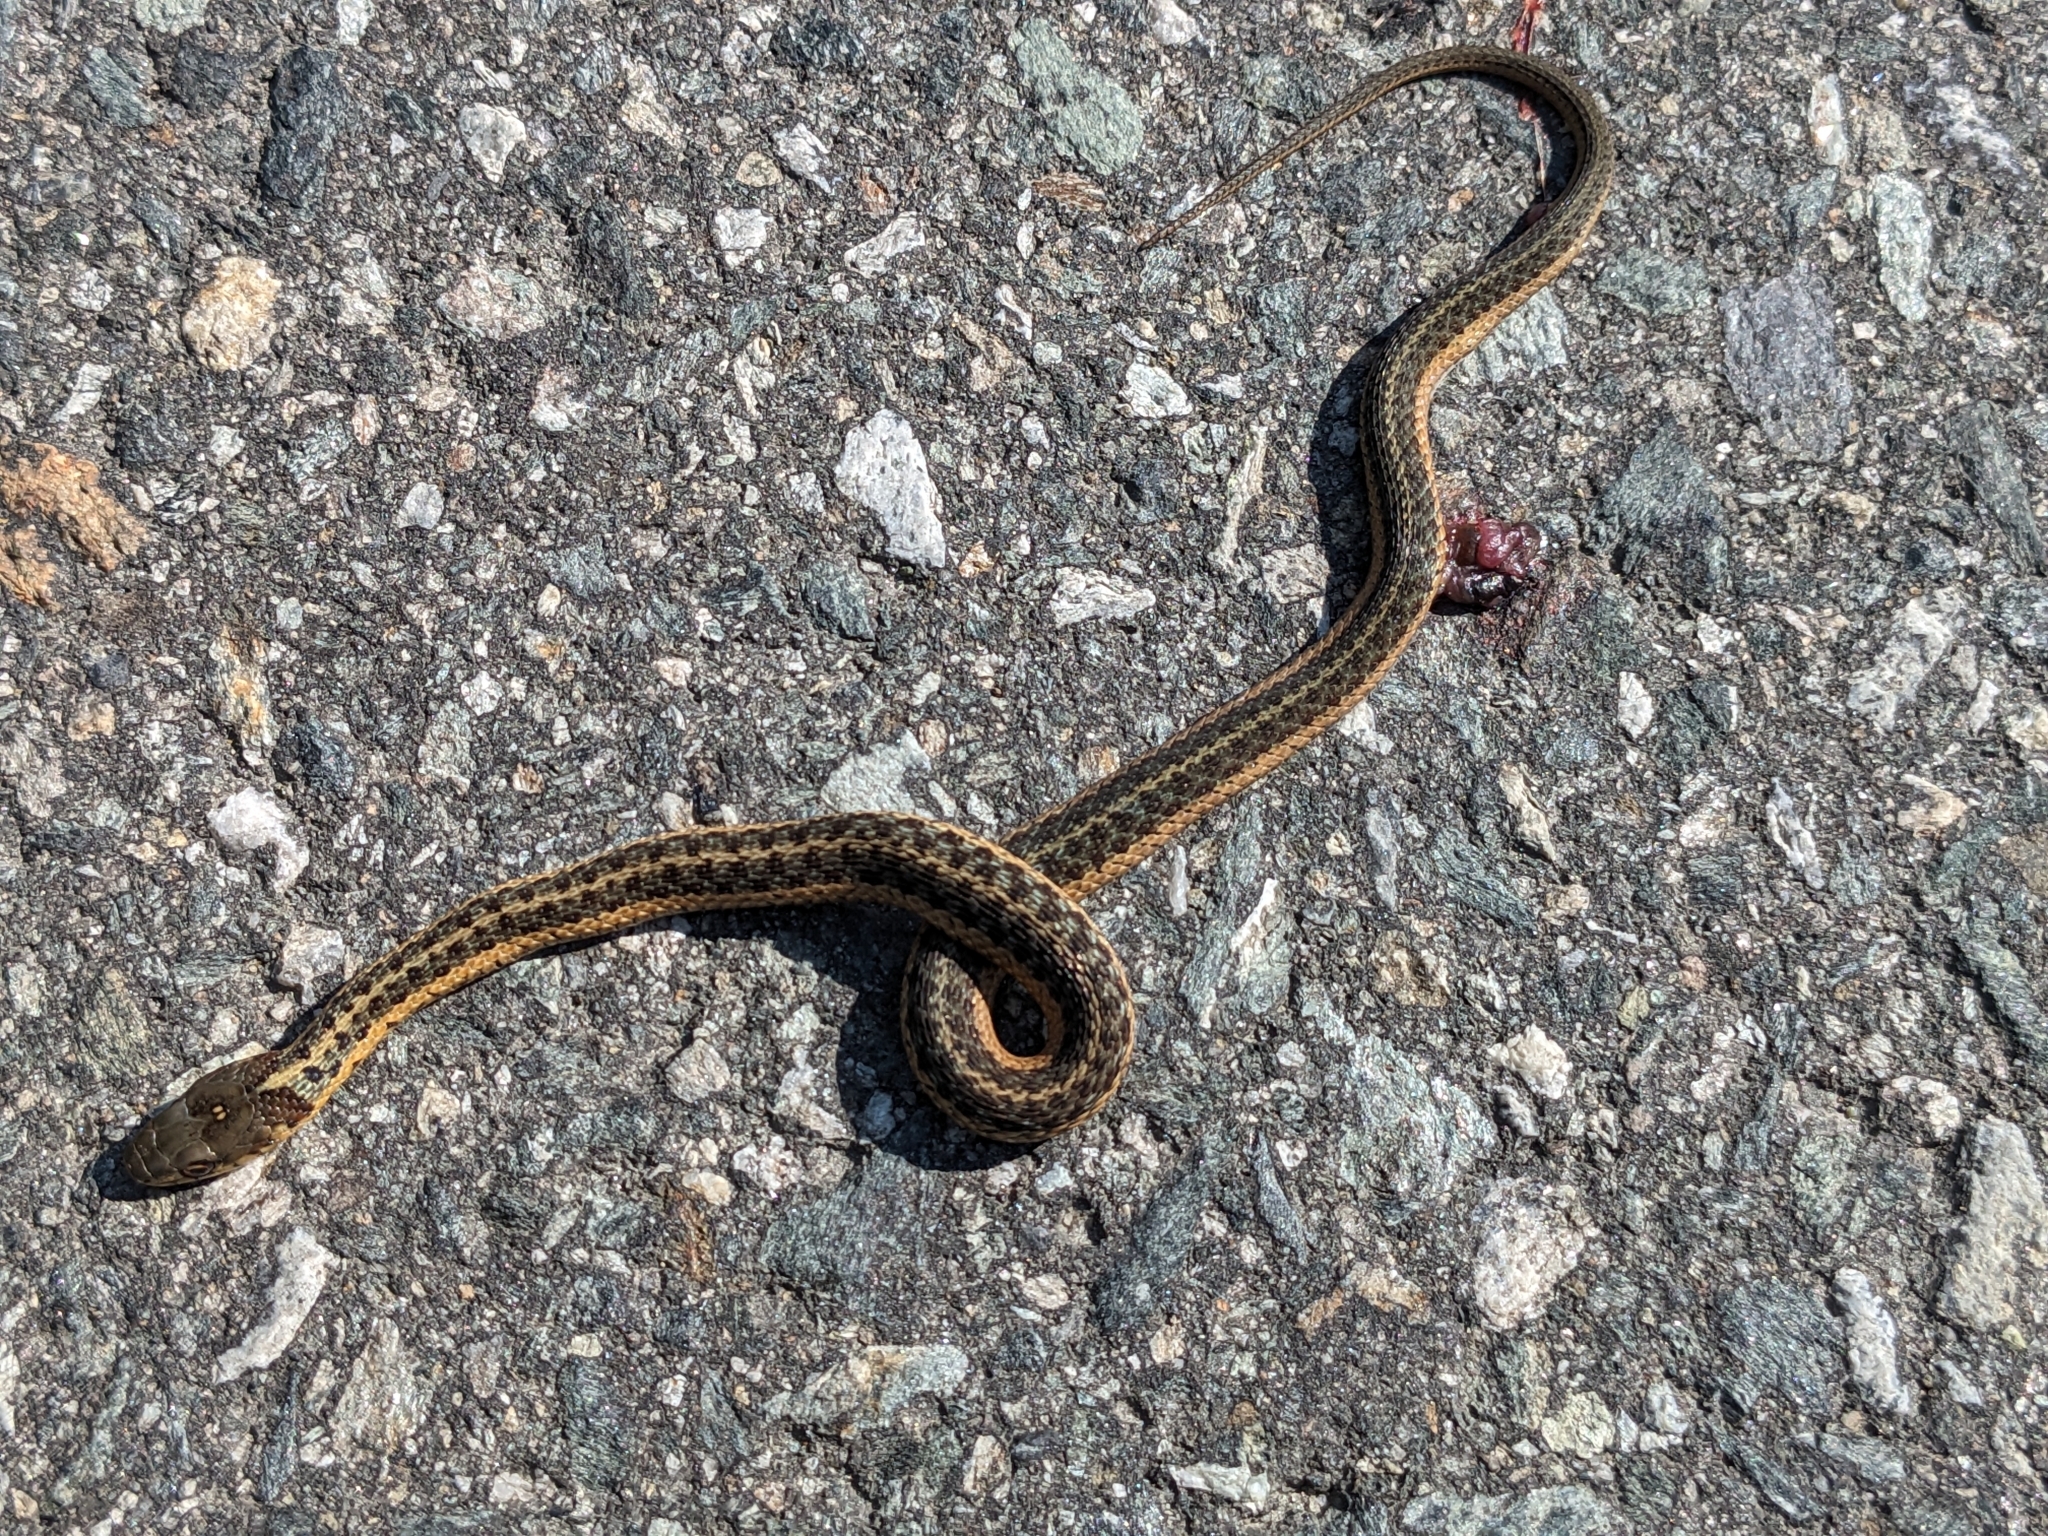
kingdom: Animalia
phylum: Chordata
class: Squamata
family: Colubridae
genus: Thamnophis
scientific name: Thamnophis sirtalis
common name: Common garter snake
